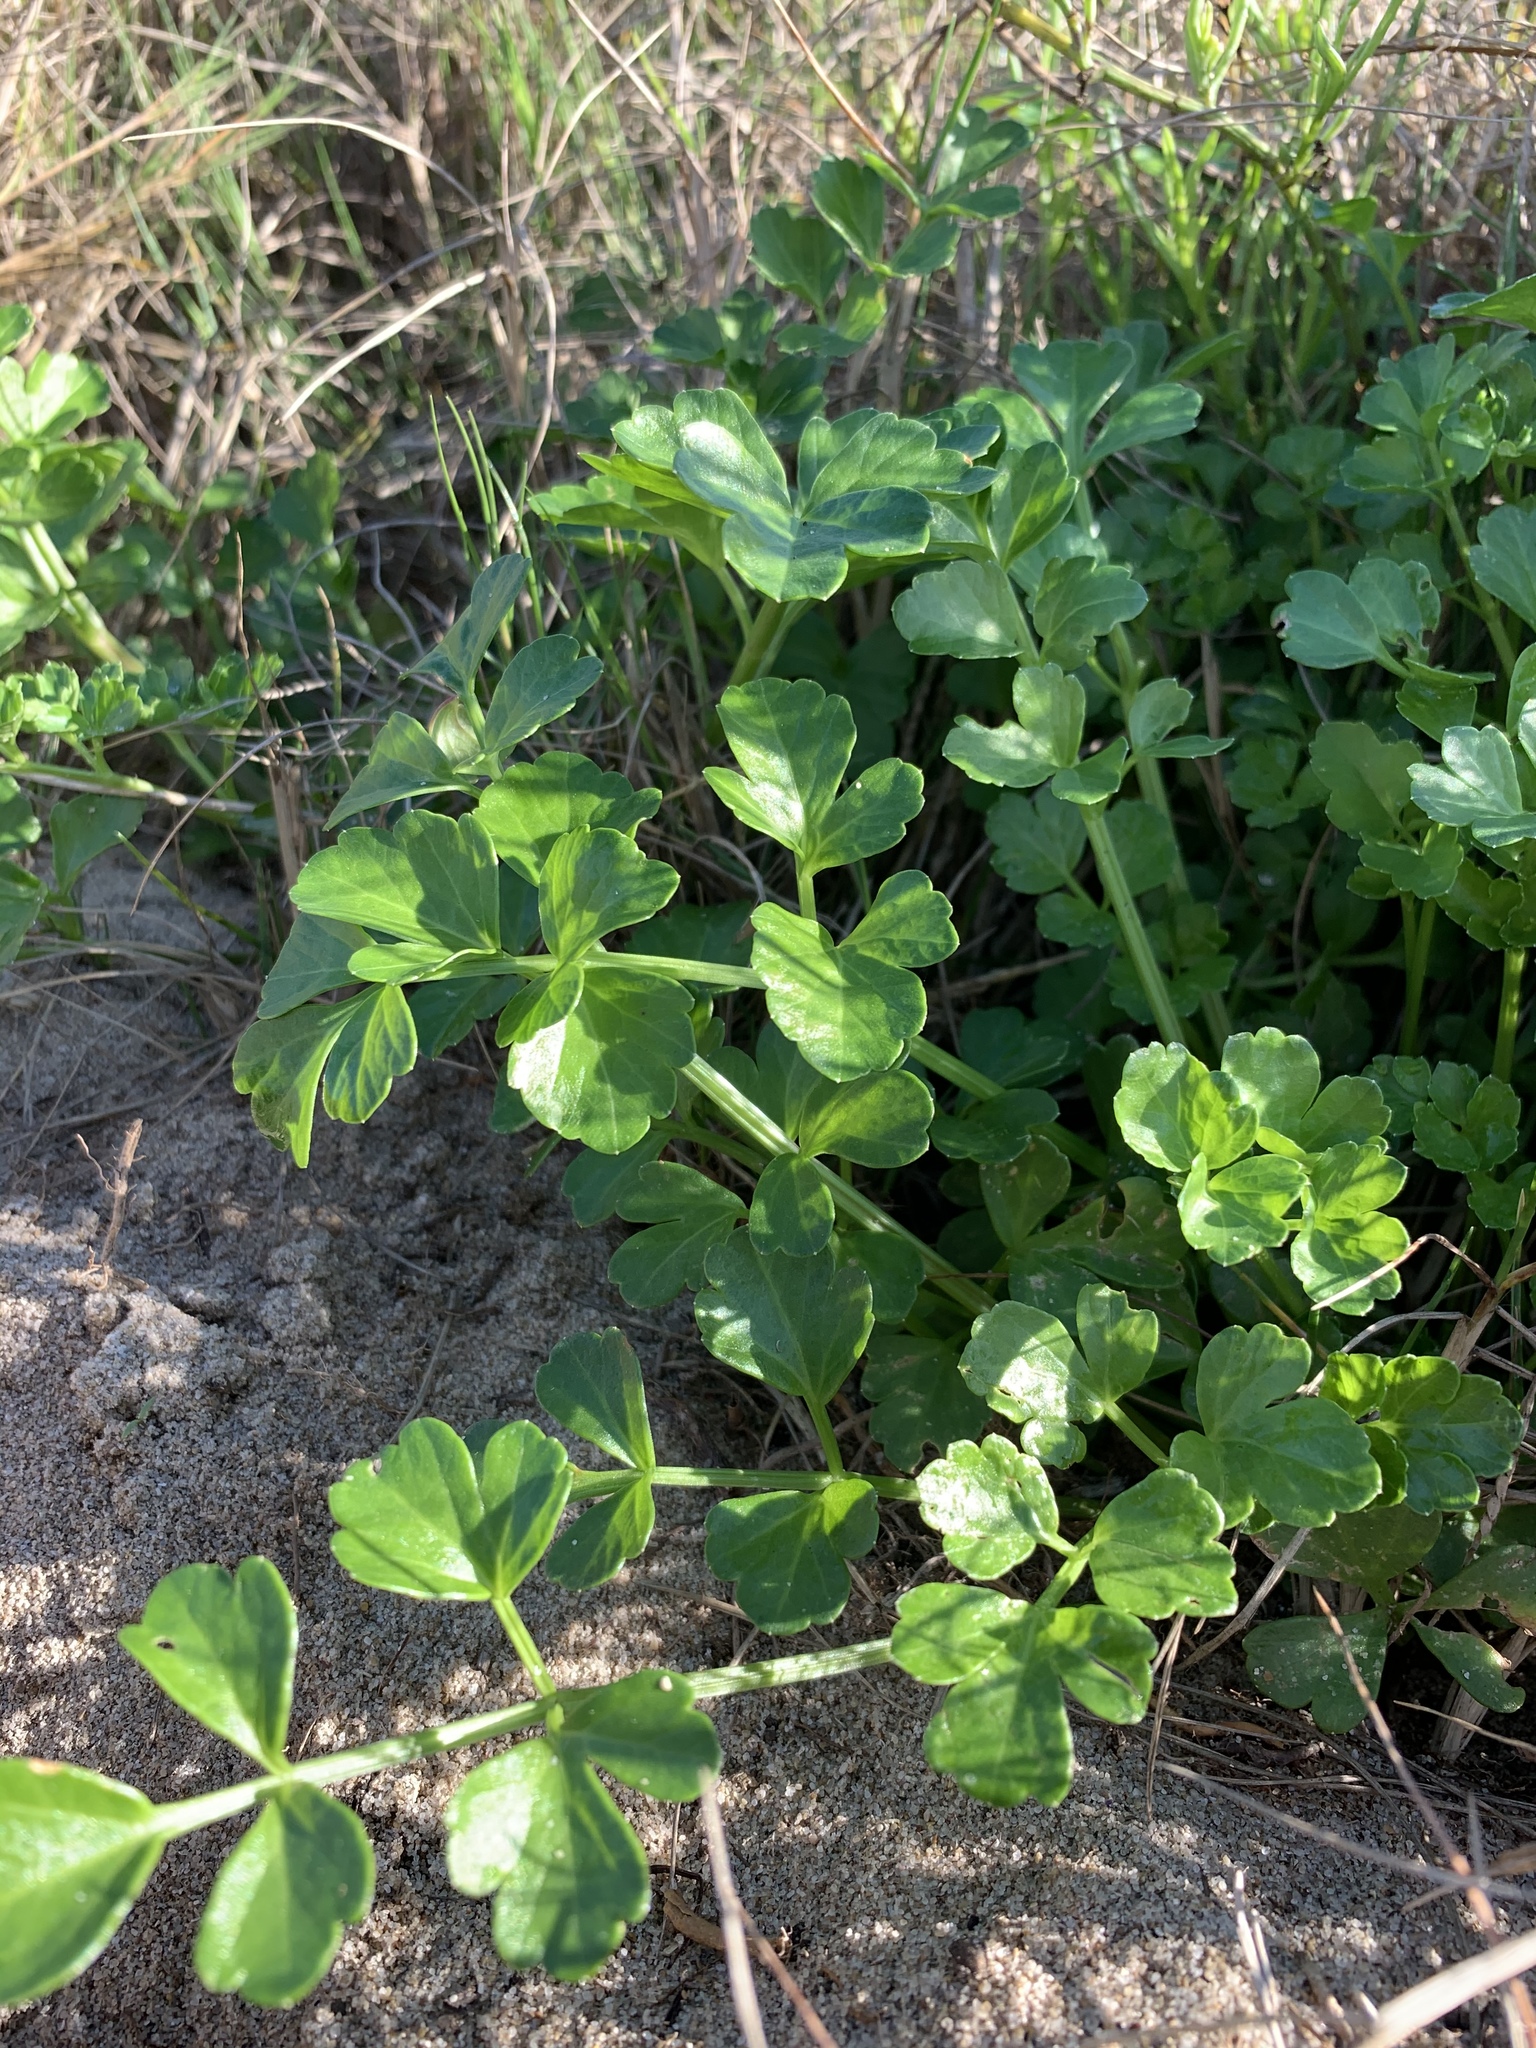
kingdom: Plantae
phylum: Tracheophyta
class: Magnoliopsida
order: Apiales
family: Apiaceae
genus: Apium
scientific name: Apium decumbens
